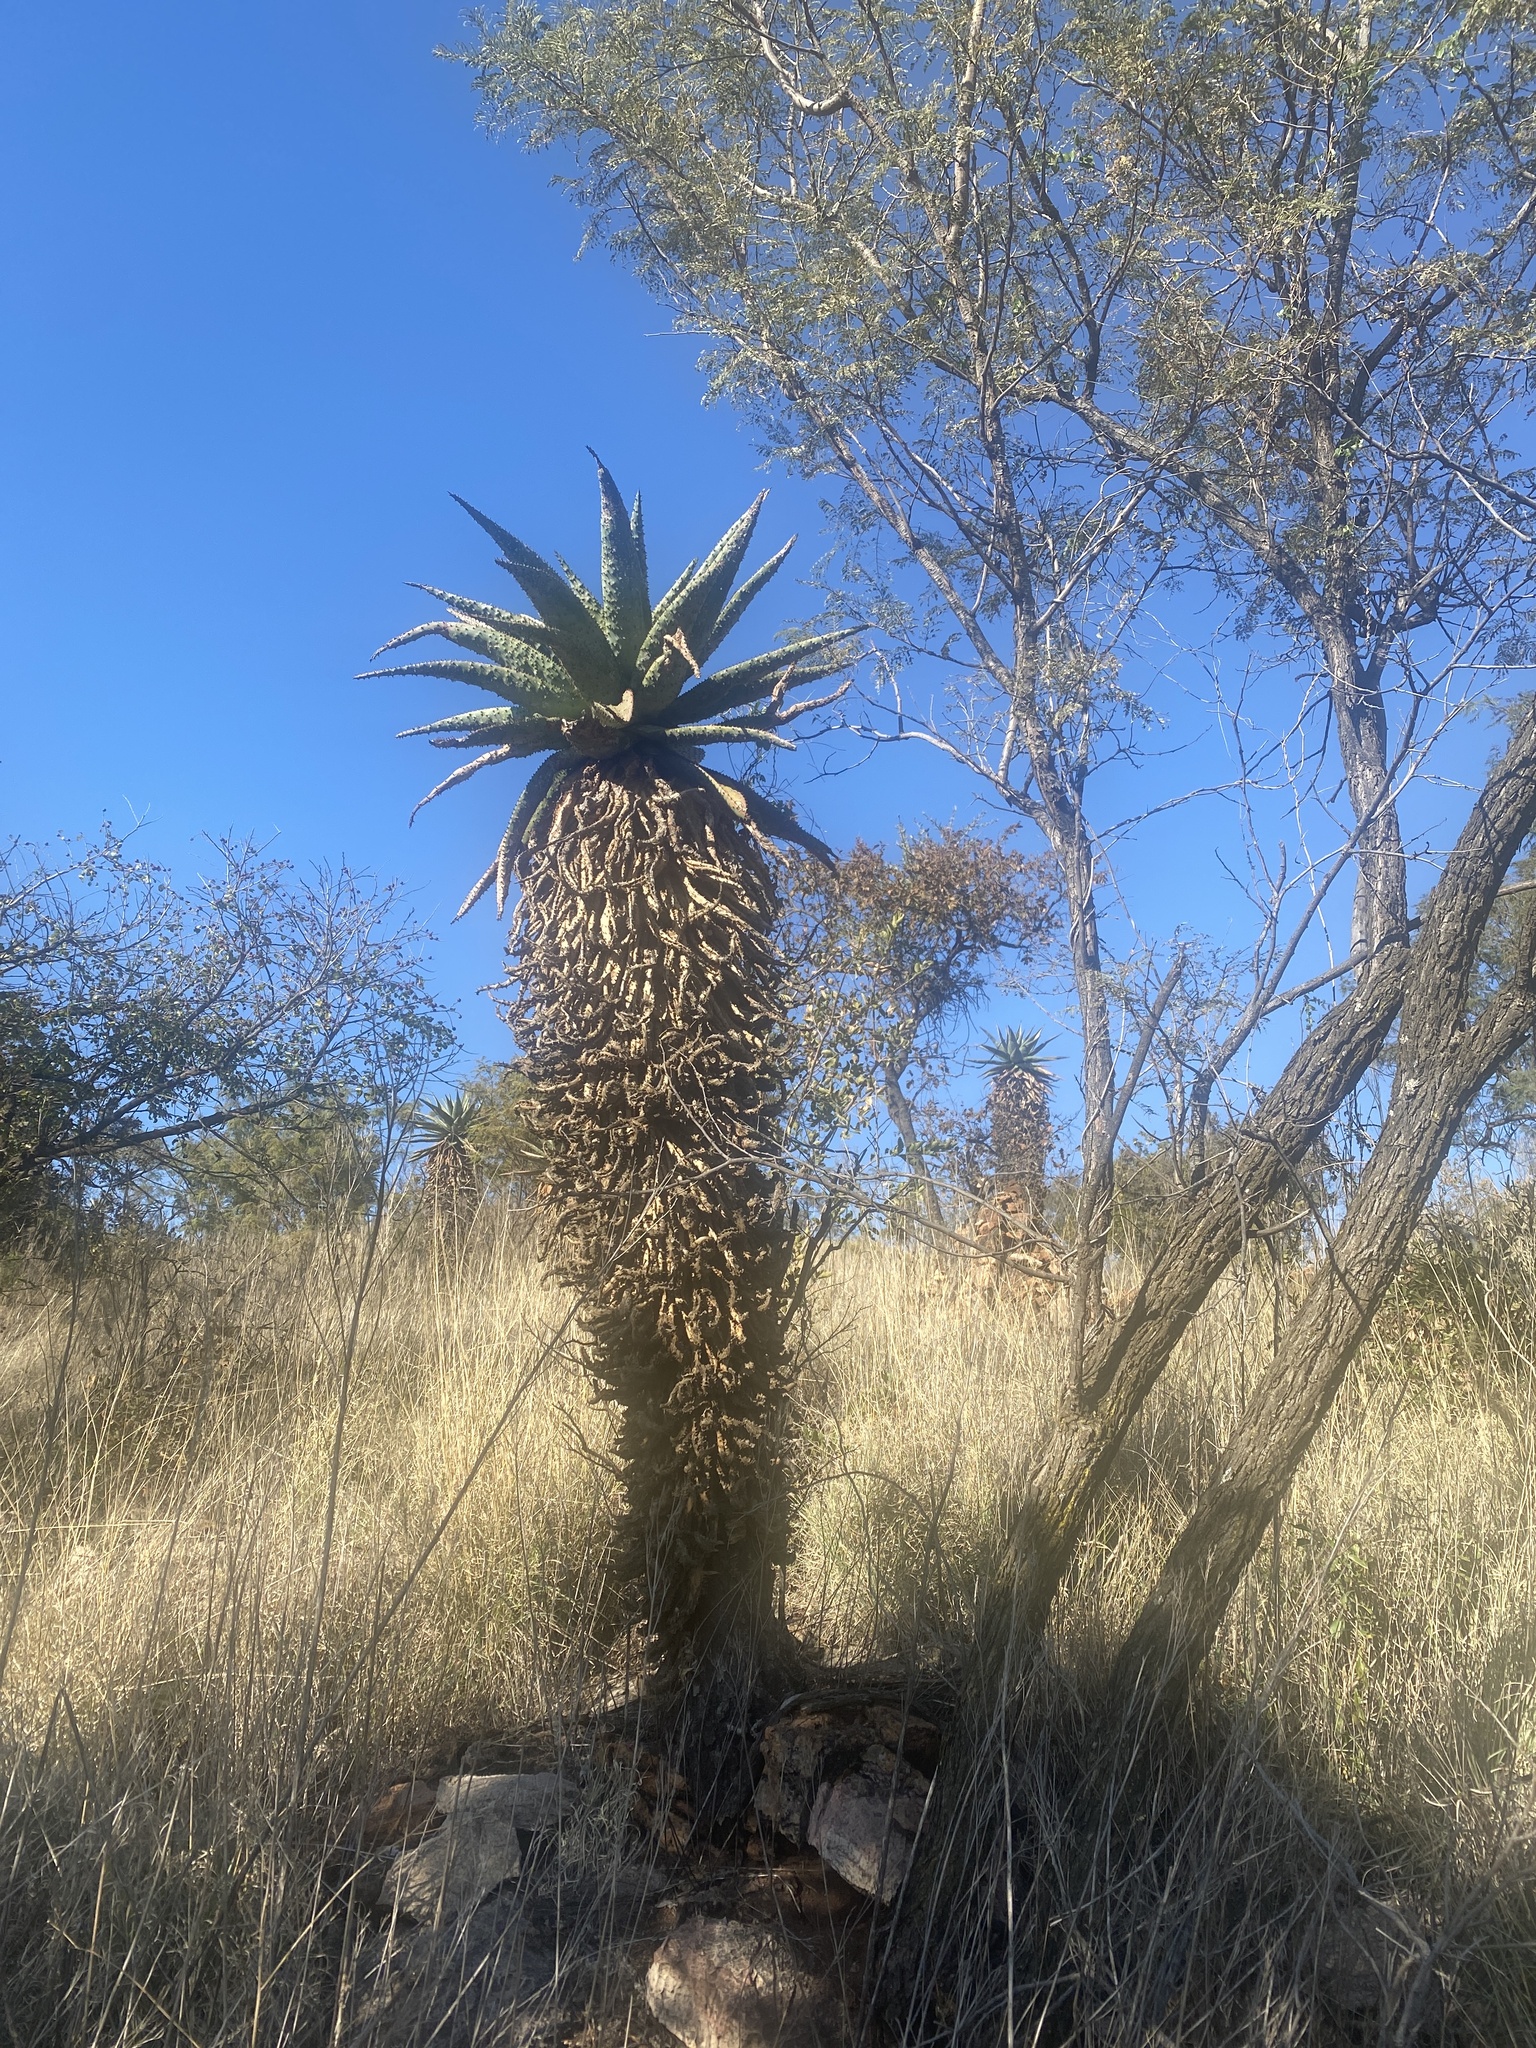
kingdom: Plantae
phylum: Tracheophyta
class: Liliopsida
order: Asparagales
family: Asphodelaceae
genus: Aloe
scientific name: Aloe marlothii
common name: Flat-flowered aloe
